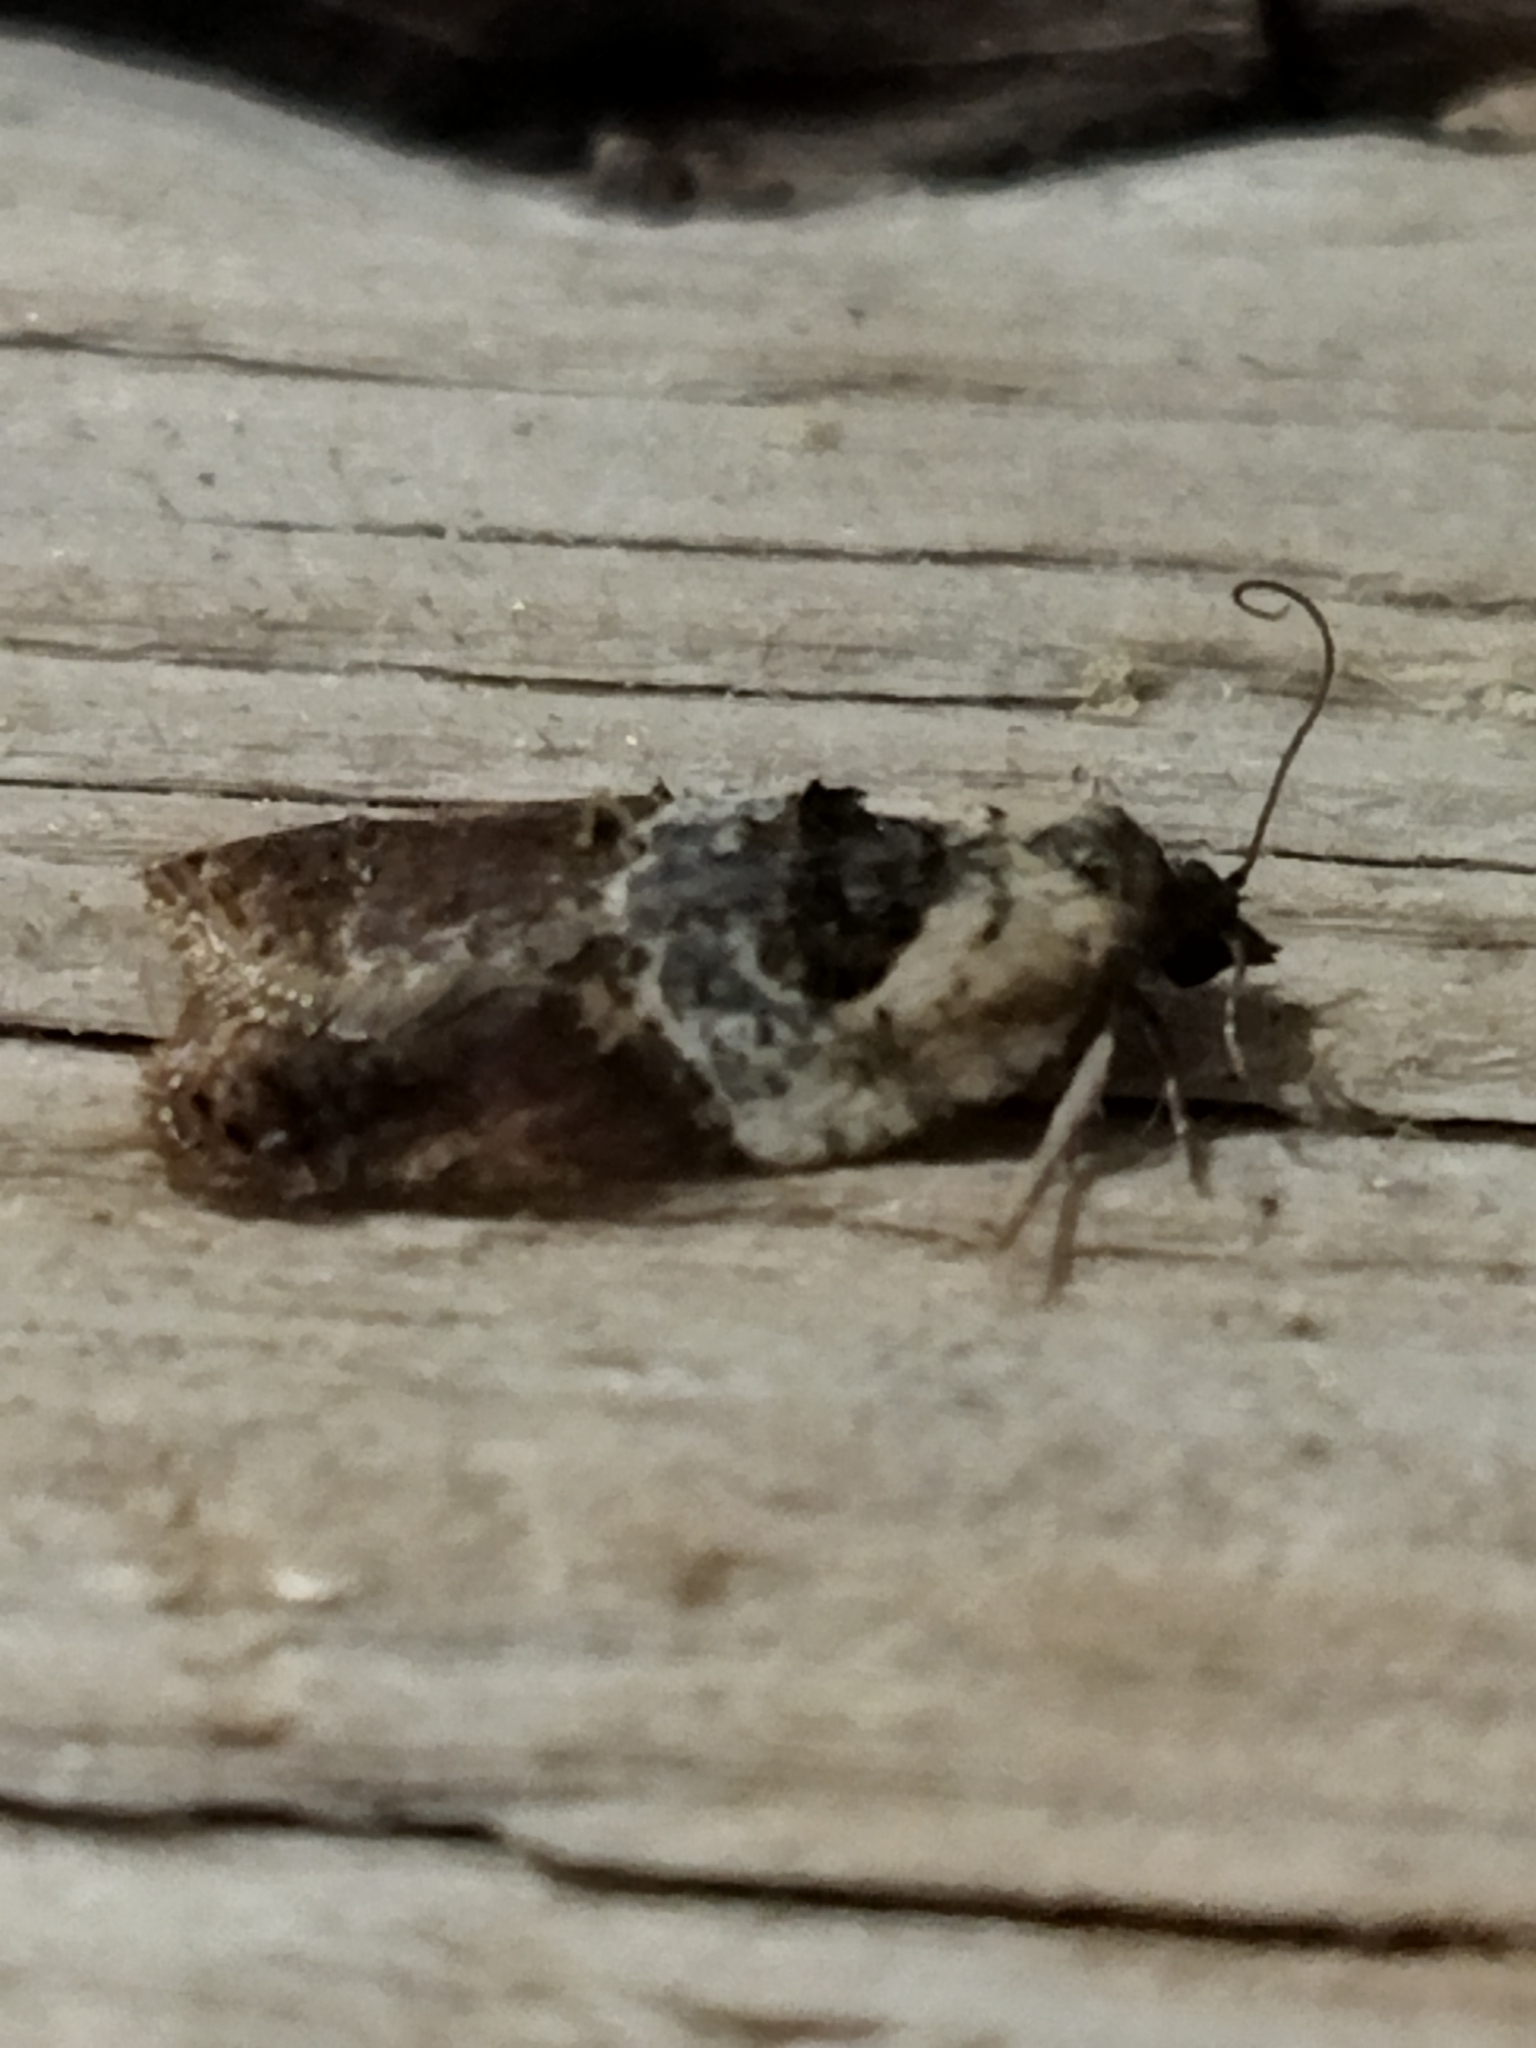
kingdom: Animalia
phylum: Arthropoda
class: Insecta
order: Lepidoptera
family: Tortricidae
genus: Acleris
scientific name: Acleris variegana
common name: Garden rose tortrix
